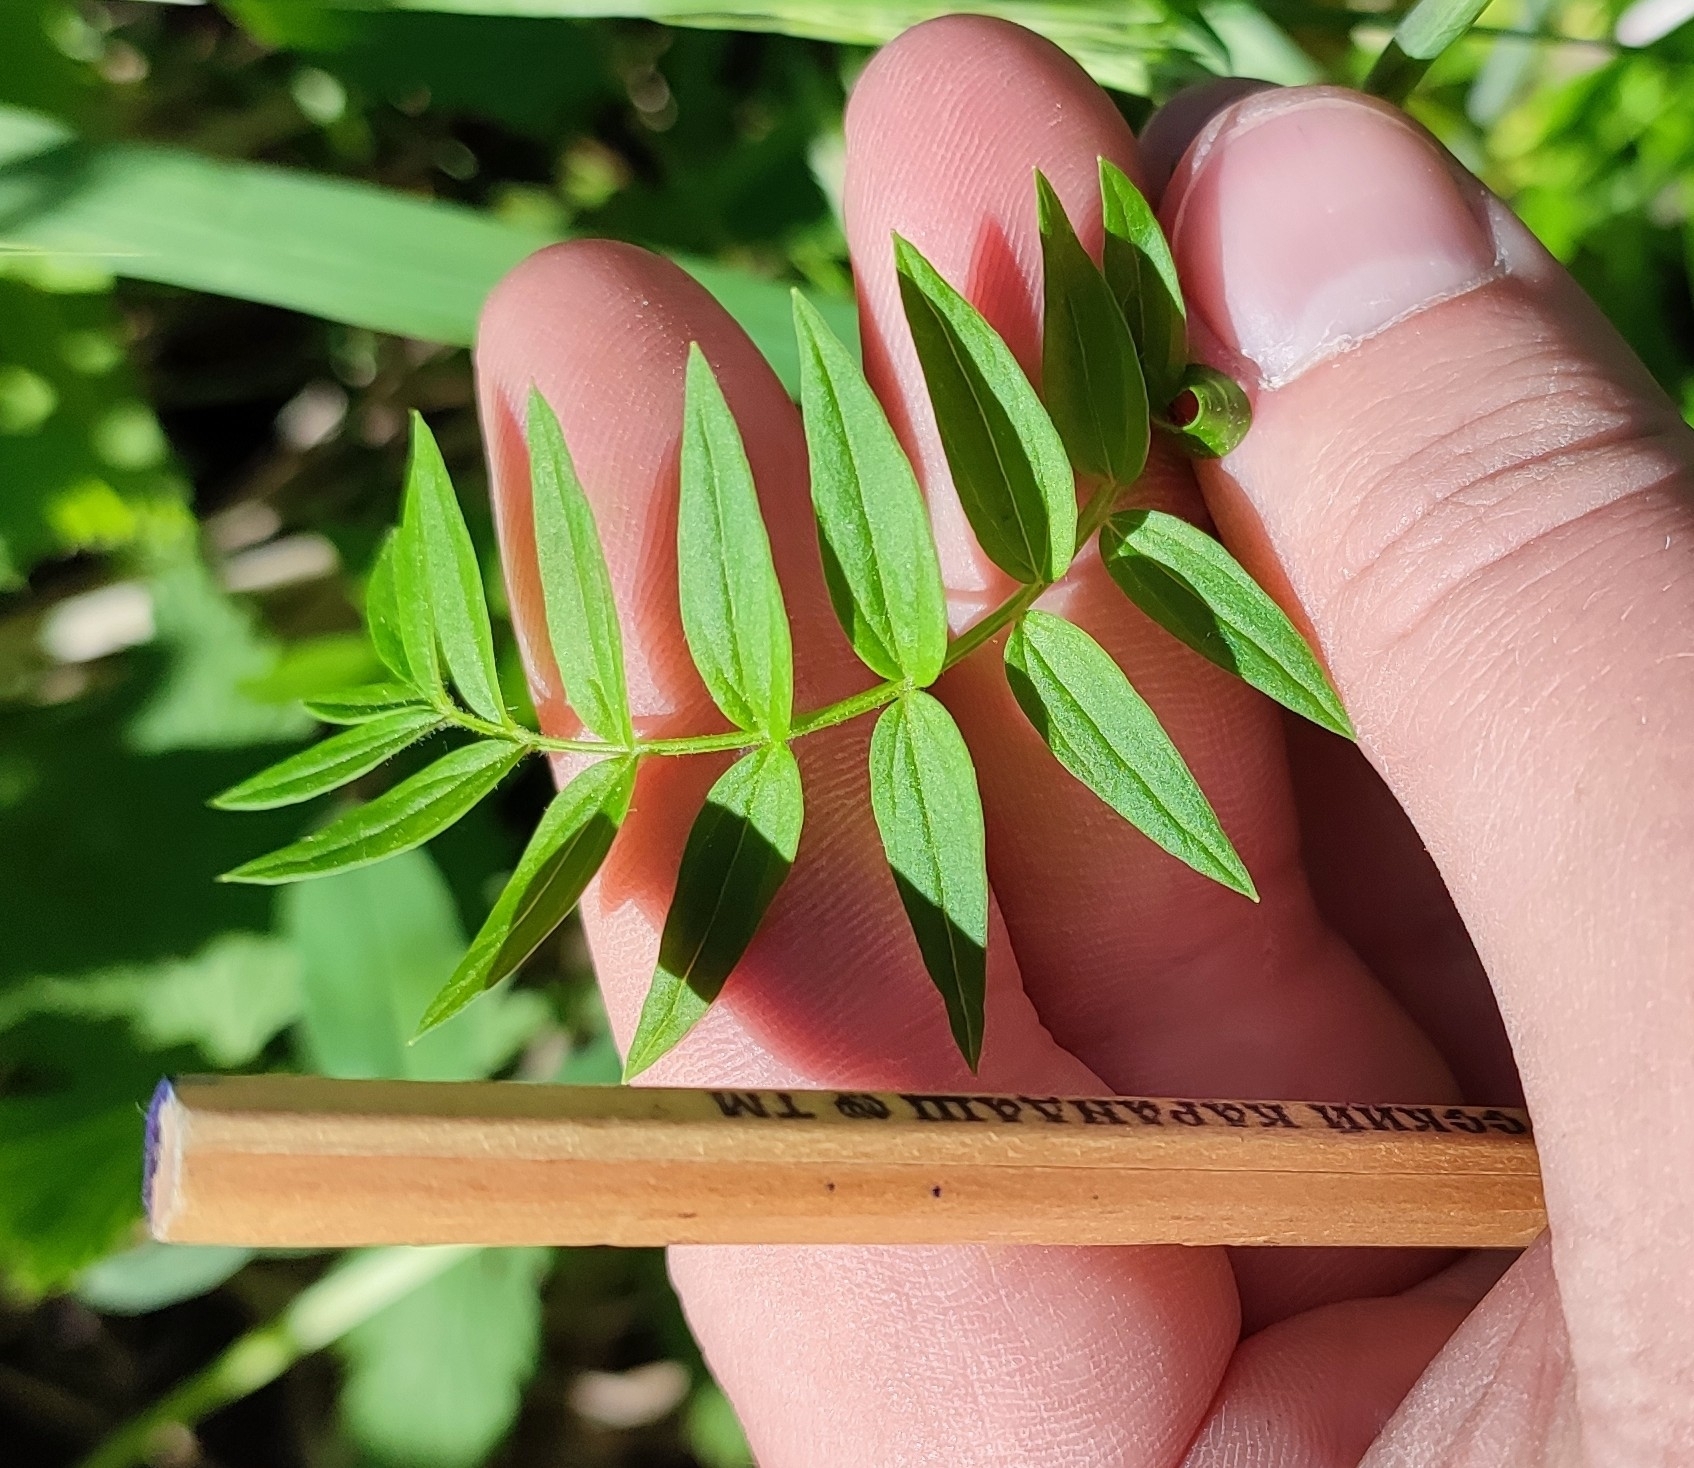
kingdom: Plantae
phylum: Tracheophyta
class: Magnoliopsida
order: Ericales
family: Polemoniaceae
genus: Polemonium
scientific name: Polemonium caeruleum
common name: Jacob's-ladder
